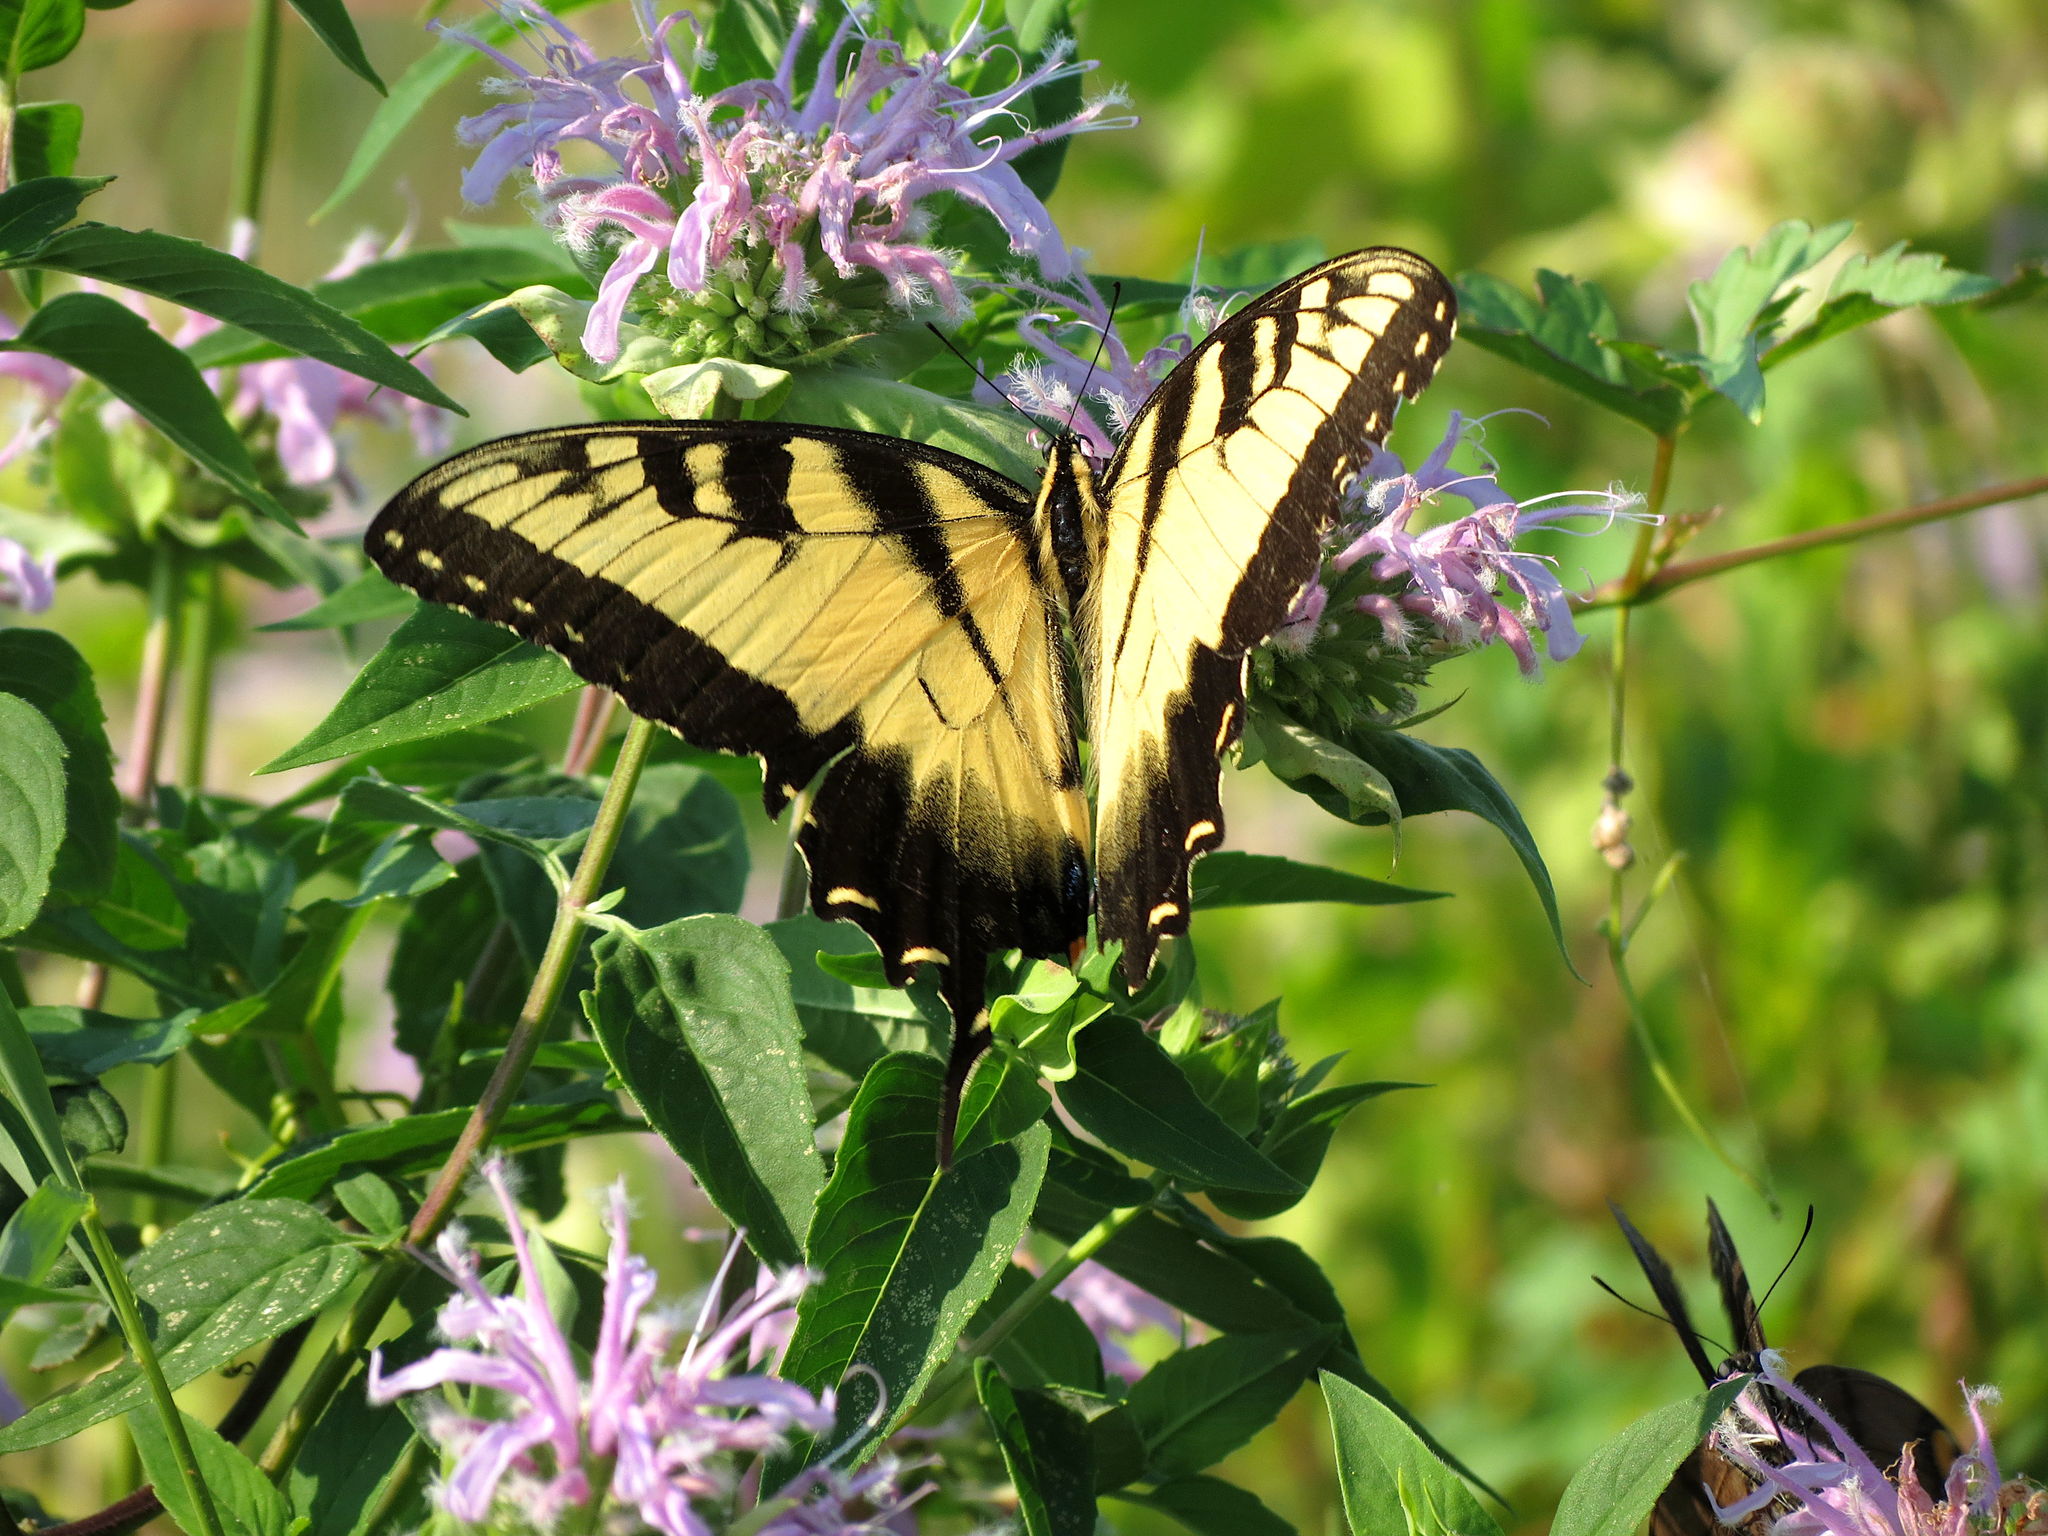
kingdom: Animalia
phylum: Arthropoda
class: Insecta
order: Lepidoptera
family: Papilionidae
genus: Papilio
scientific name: Papilio glaucus
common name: Tiger swallowtail
